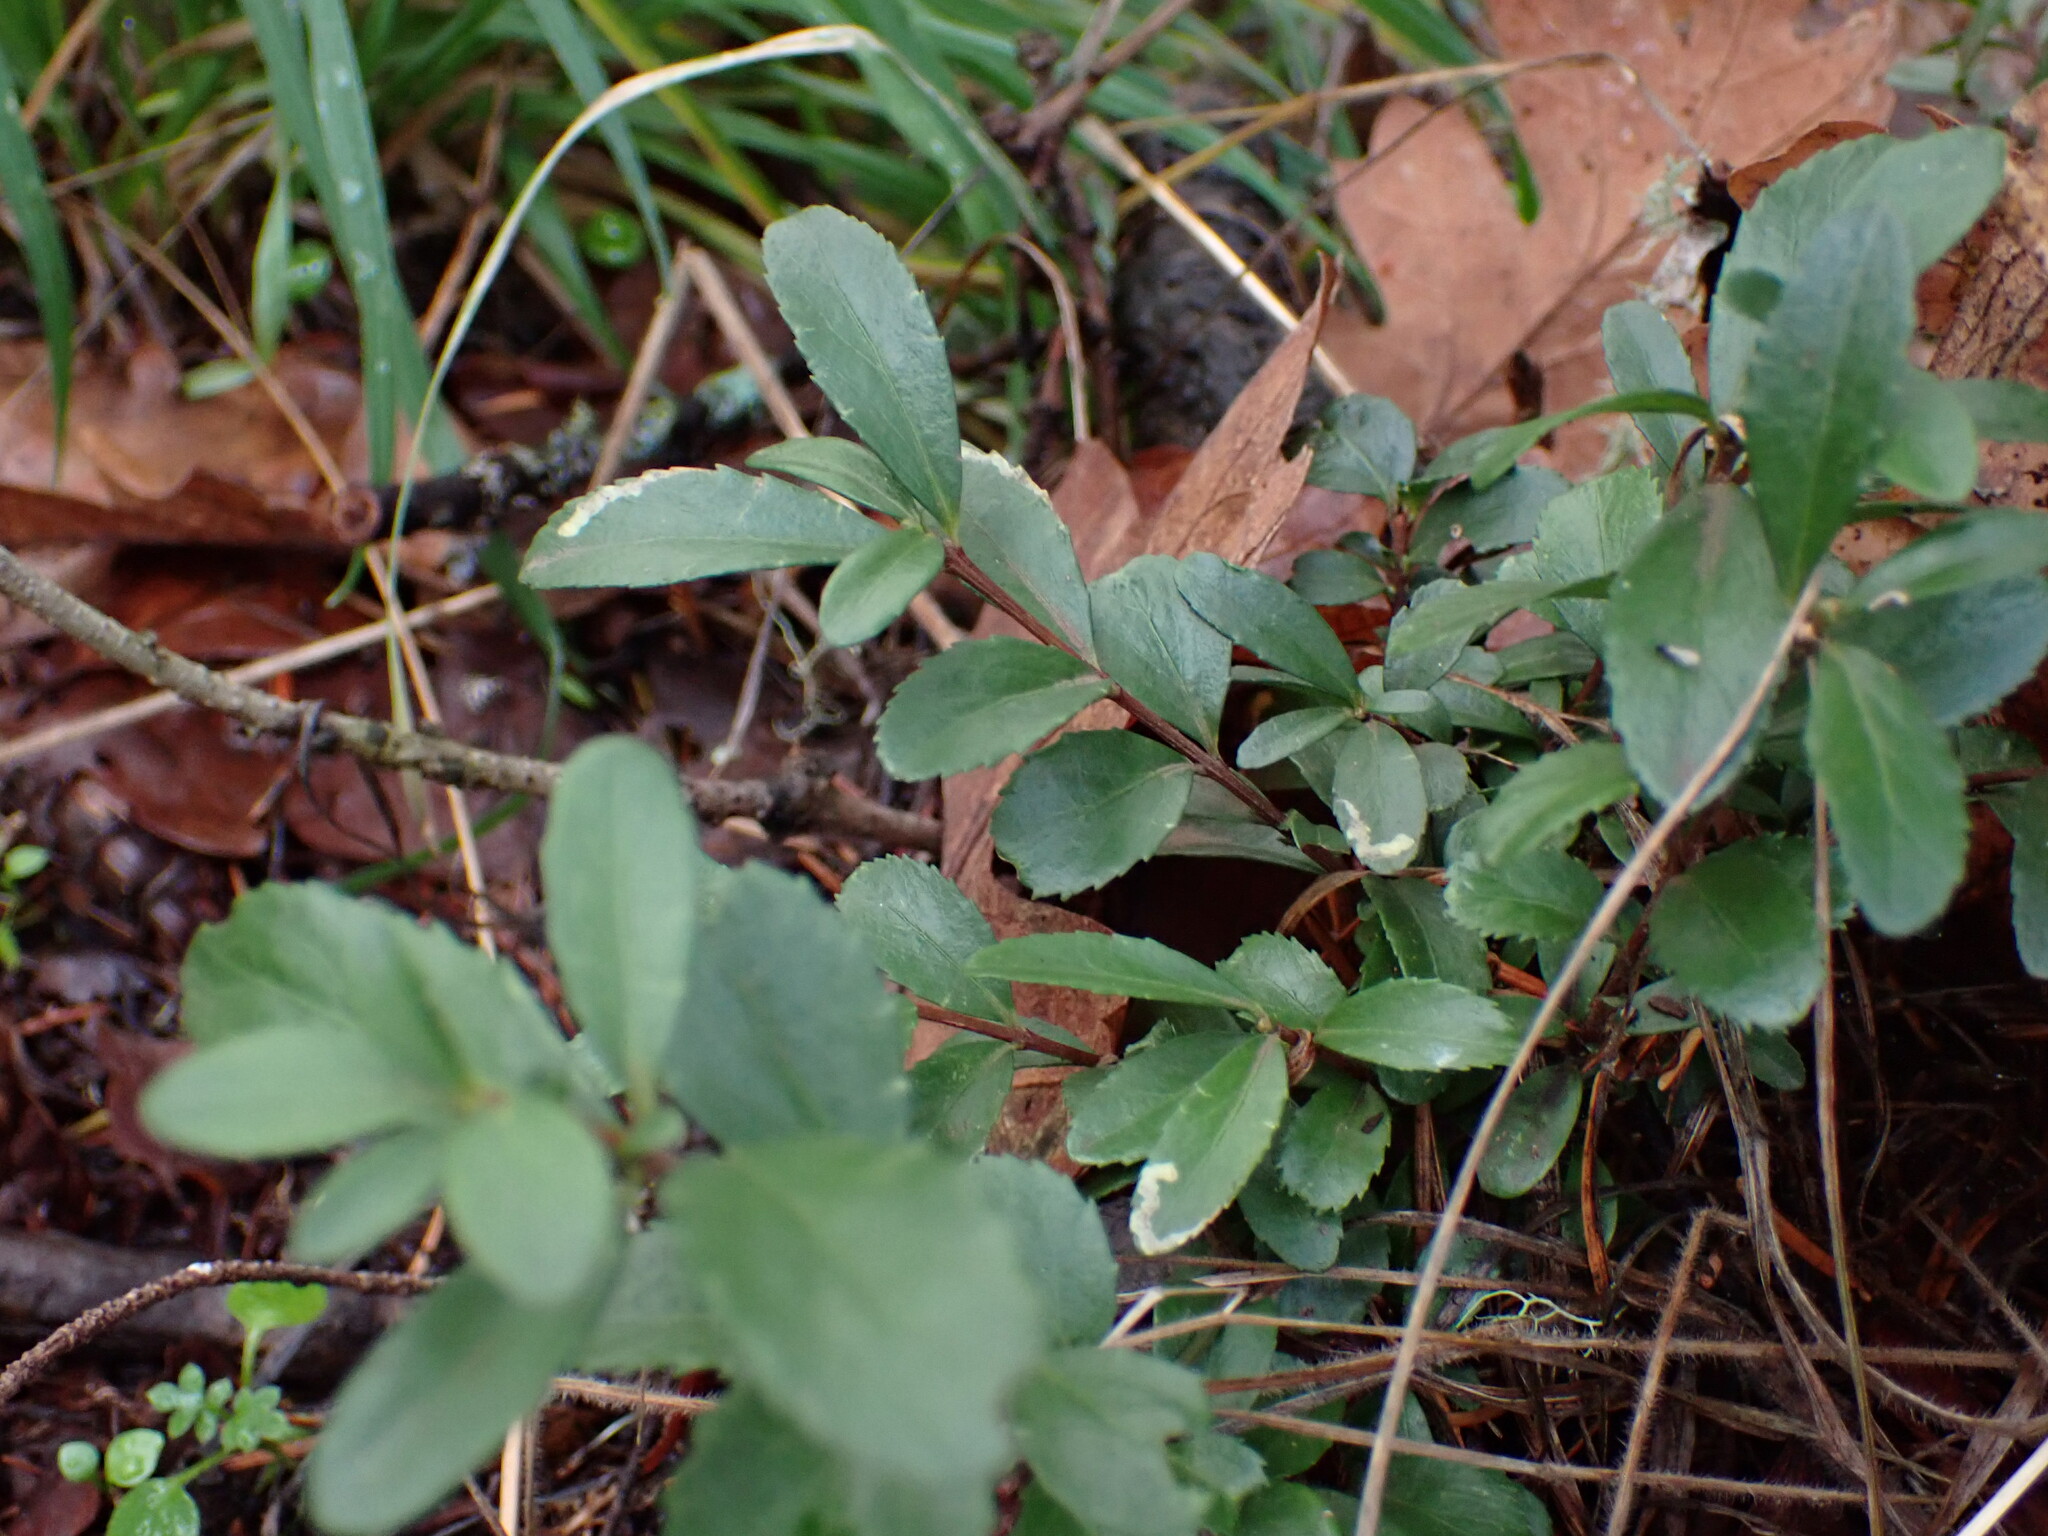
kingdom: Plantae
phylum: Tracheophyta
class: Magnoliopsida
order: Celastrales
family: Celastraceae
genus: Paxistima
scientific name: Paxistima myrsinites
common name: Mountain-lover
